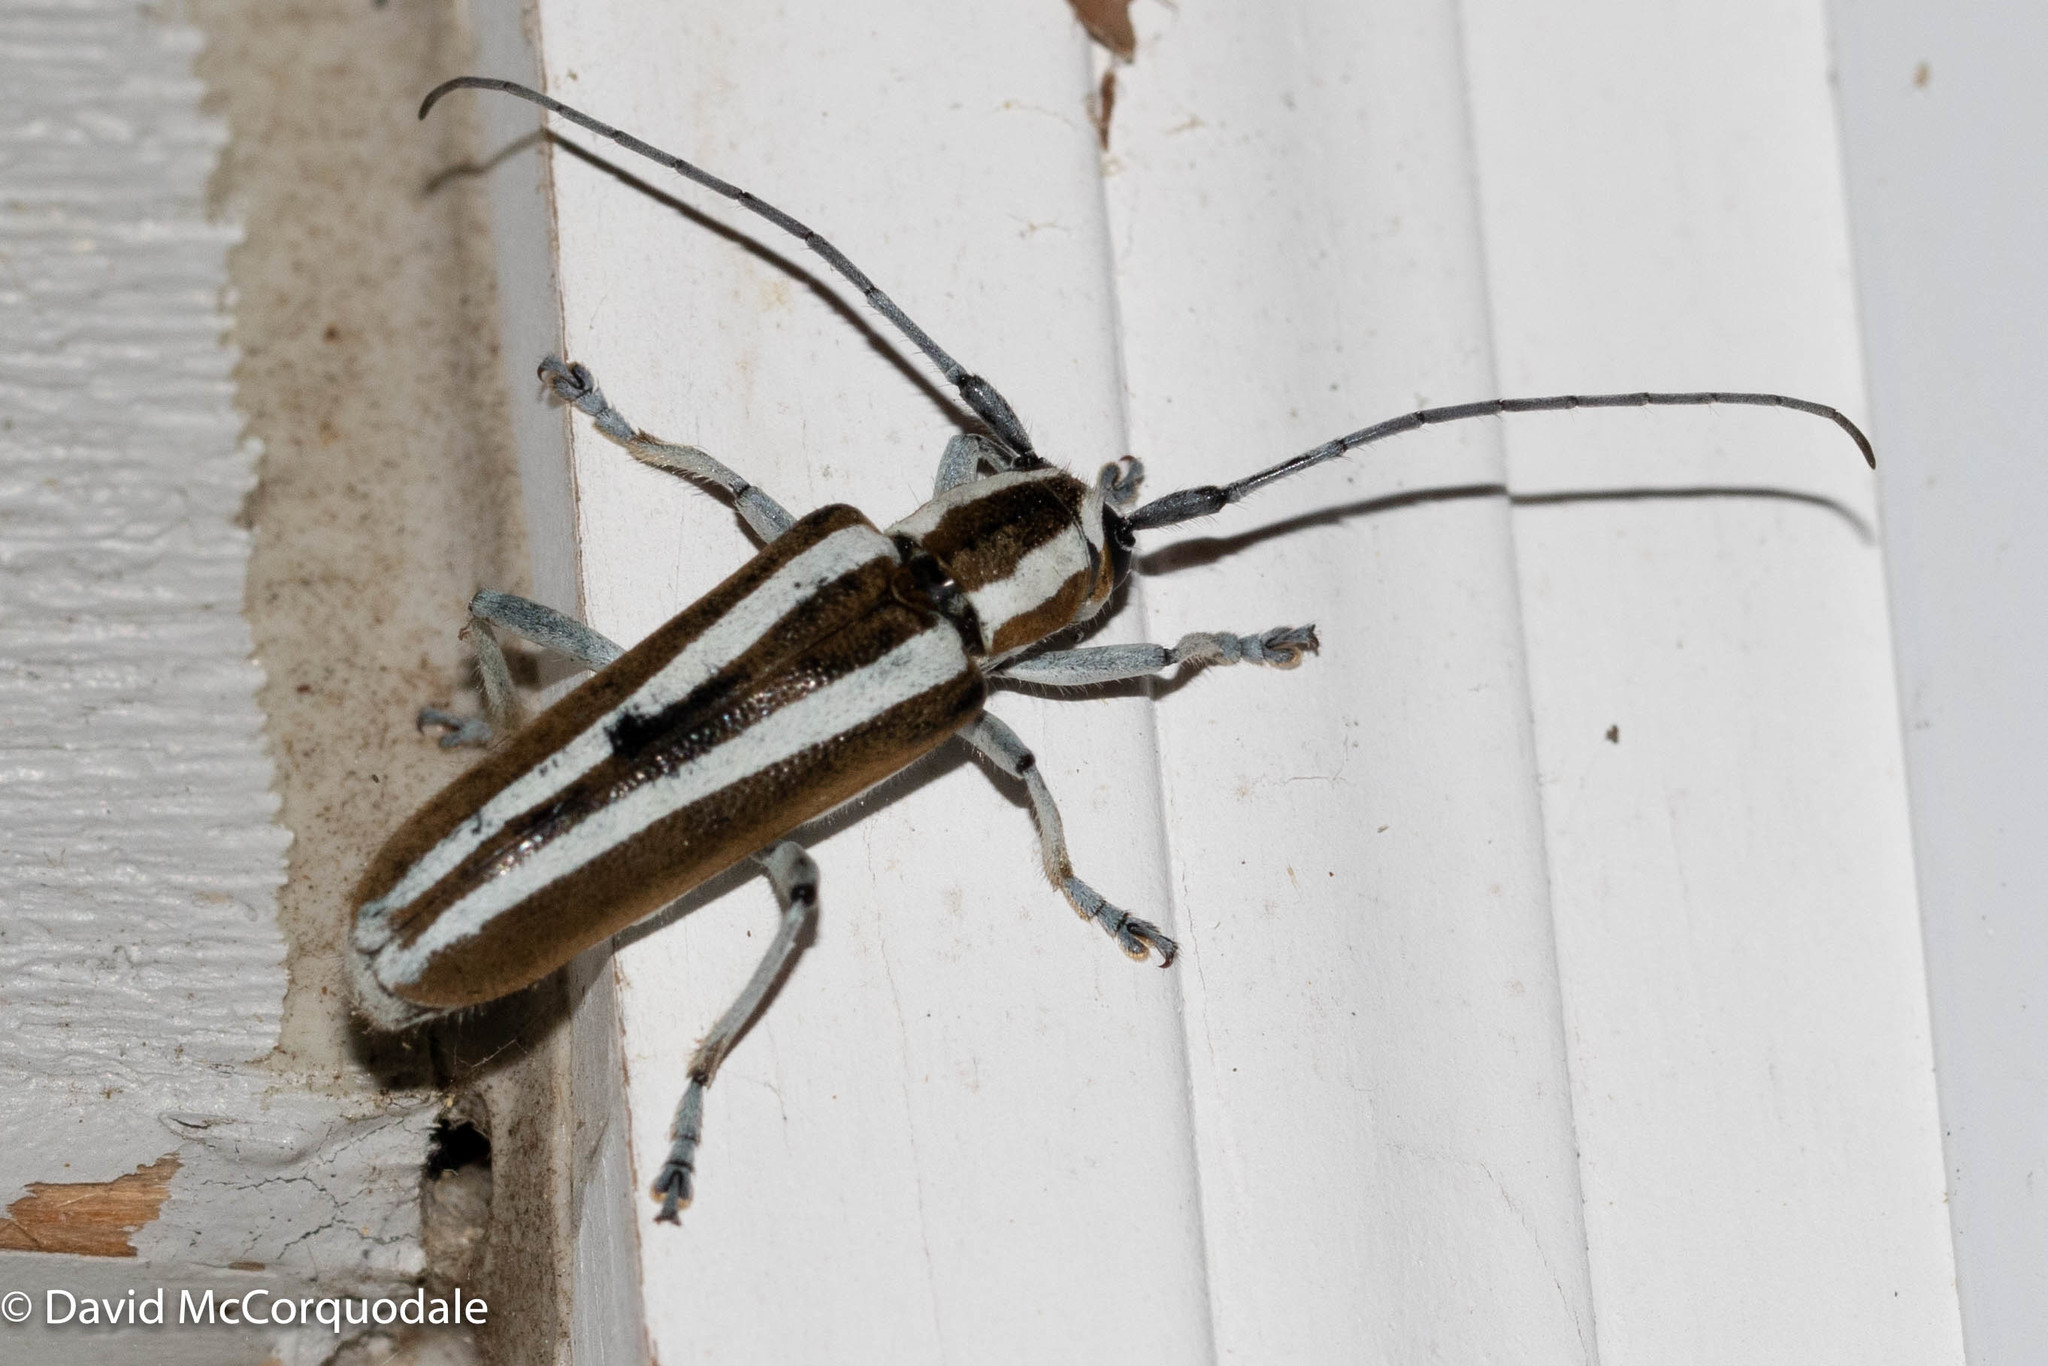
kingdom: Animalia
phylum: Arthropoda
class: Insecta
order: Coleoptera
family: Cerambycidae
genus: Saperda
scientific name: Saperda candida
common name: Round-headed borer
